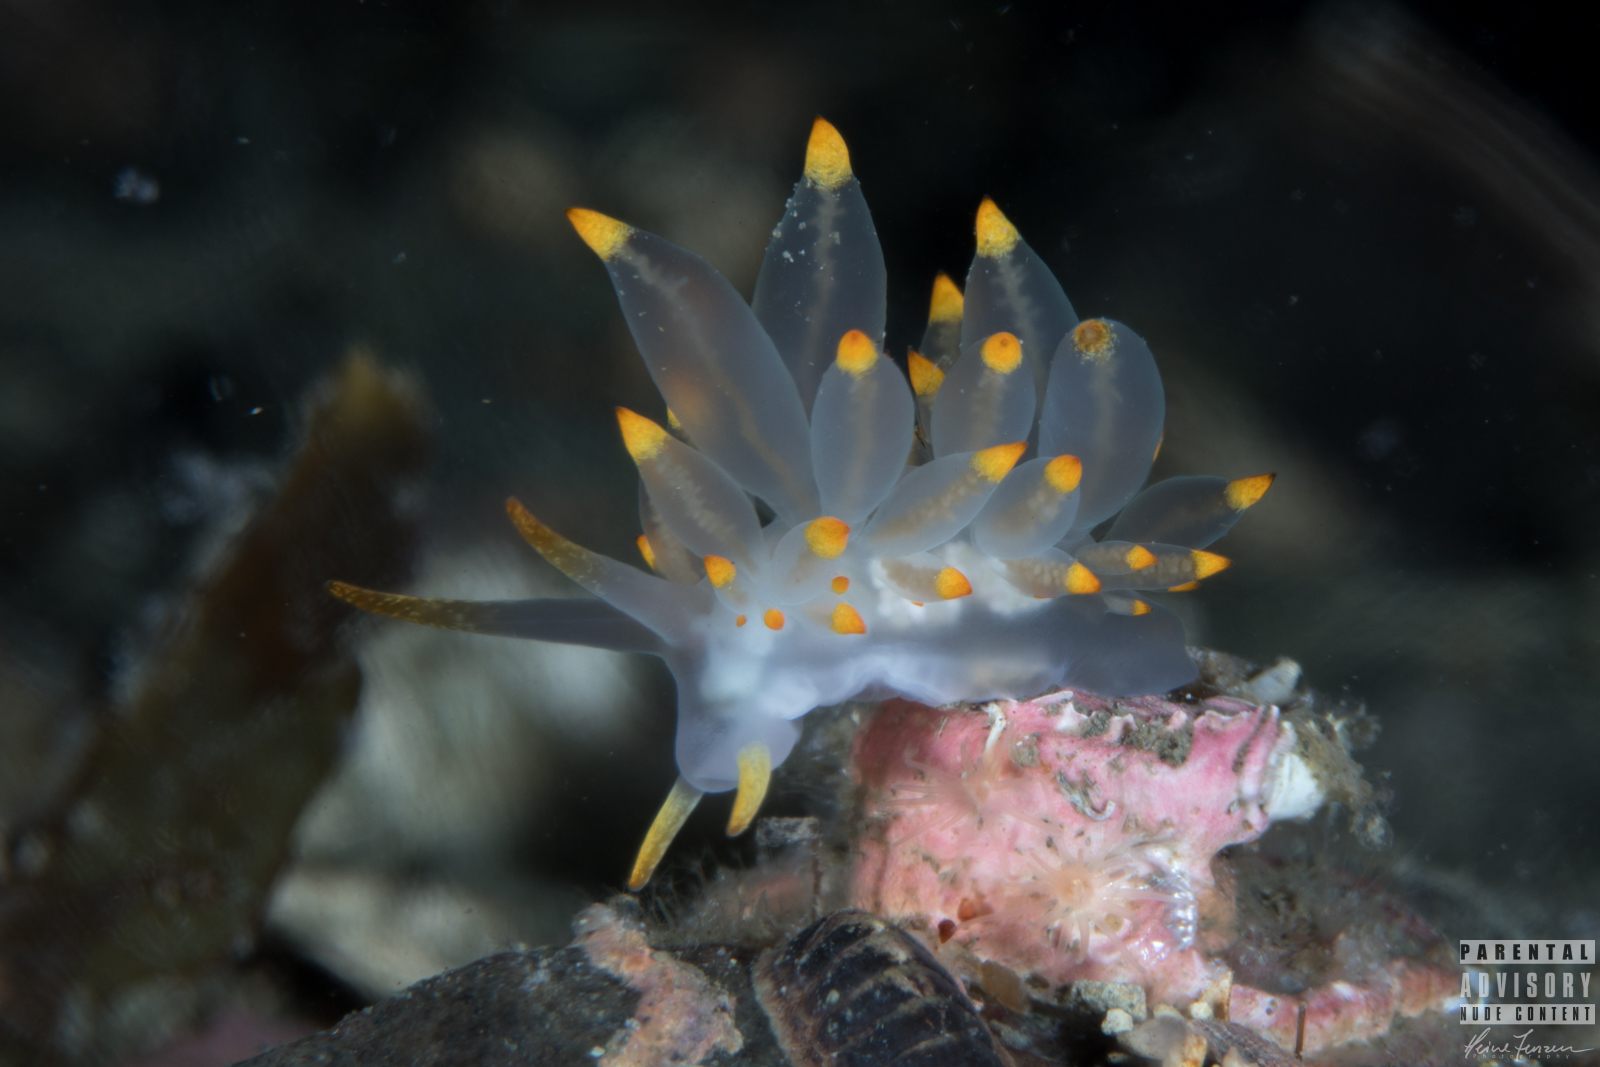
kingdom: Animalia
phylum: Mollusca
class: Gastropoda
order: Nudibranchia
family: Eubranchidae
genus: Amphorina
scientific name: Amphorina farrani
